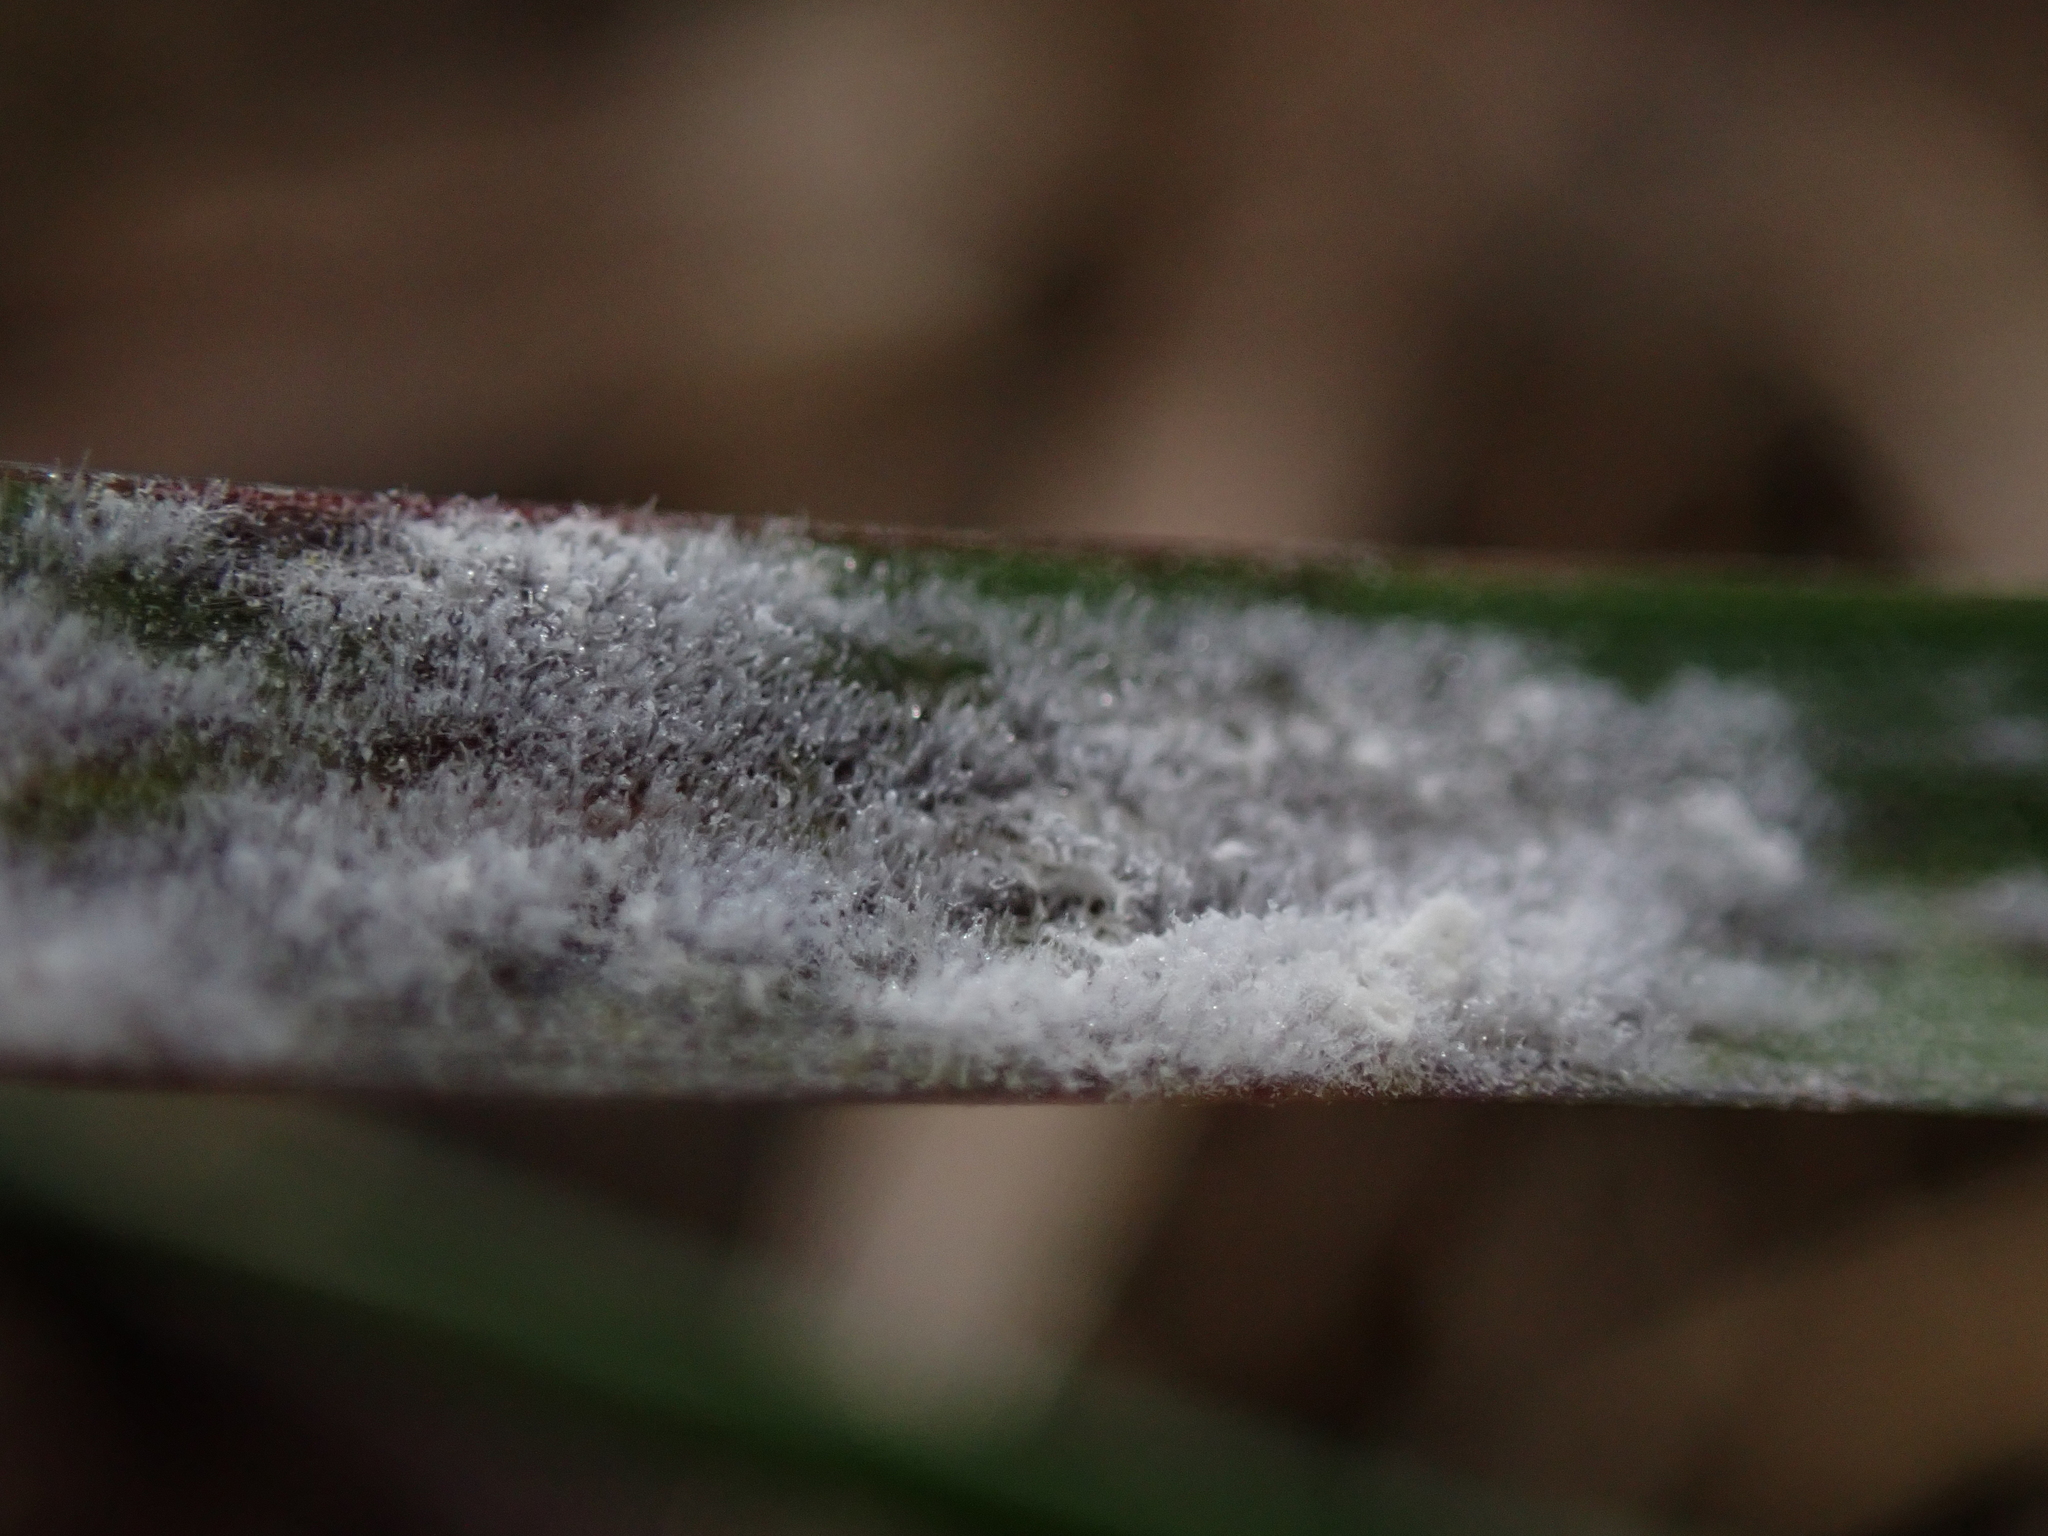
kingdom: Fungi
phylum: Ascomycota
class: Leotiomycetes
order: Helotiales
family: Erysiphaceae
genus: Blumeria
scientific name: Blumeria graminicola
